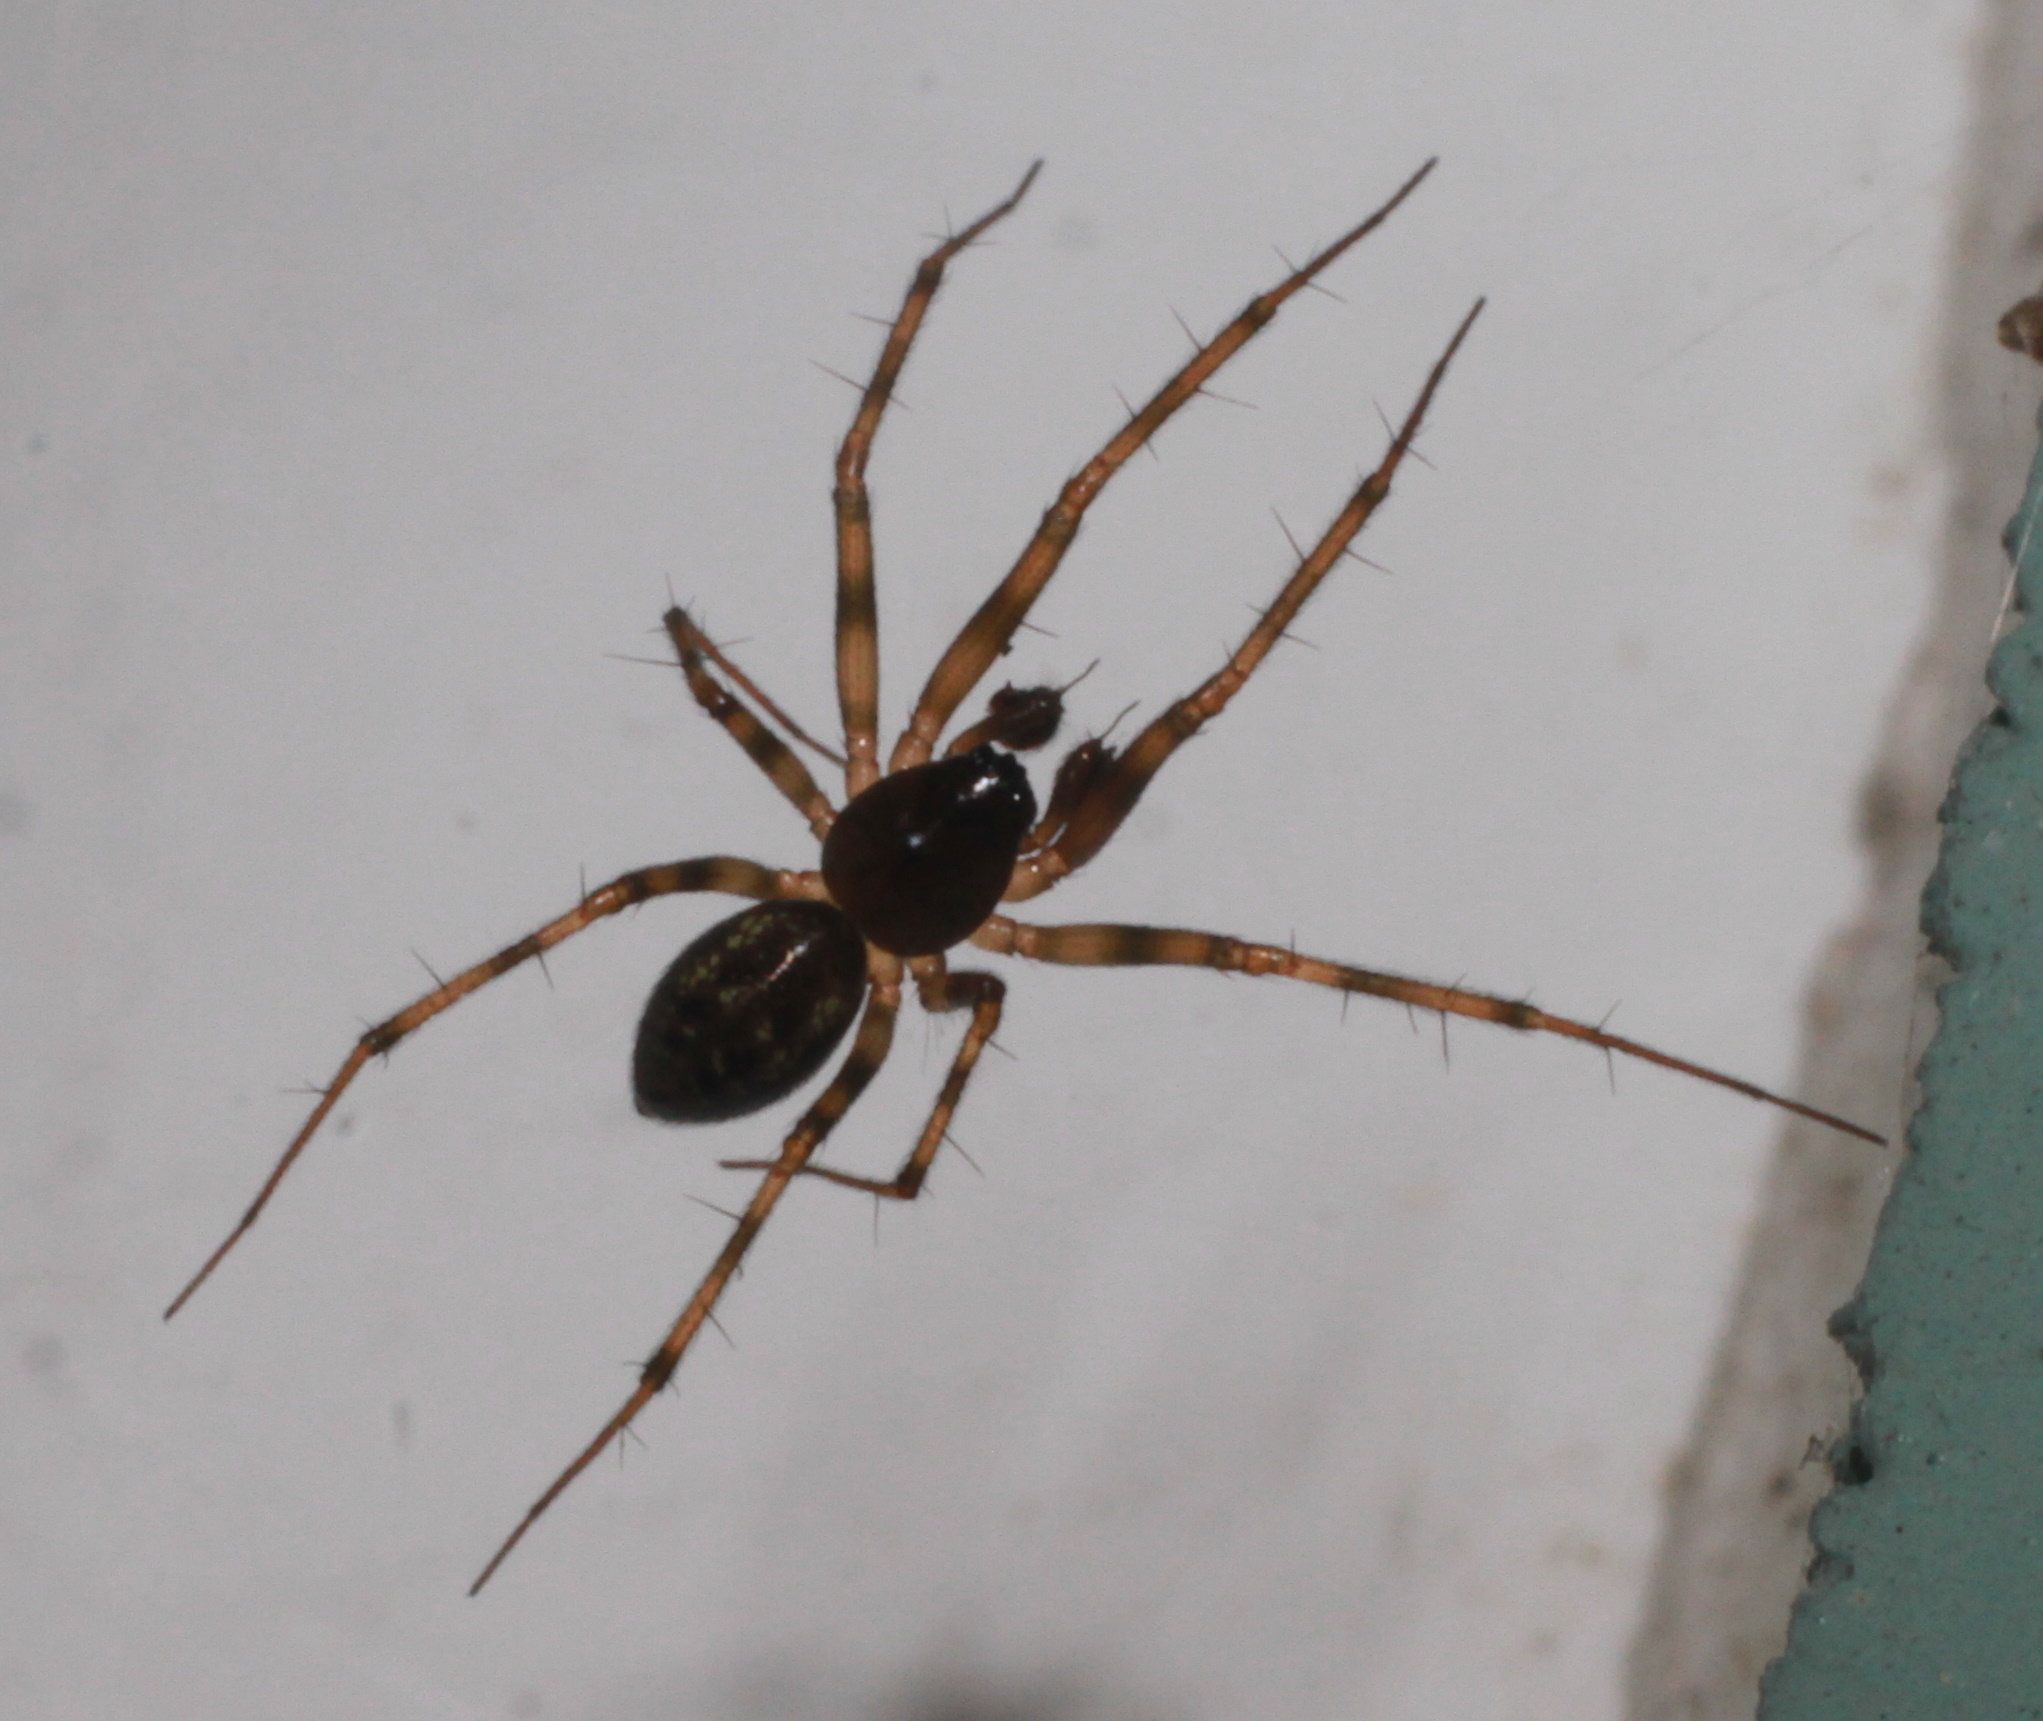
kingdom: Animalia
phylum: Arthropoda
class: Arachnida
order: Araneae
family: Linyphiidae
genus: Lepthyphantes
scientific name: Lepthyphantes minutus
